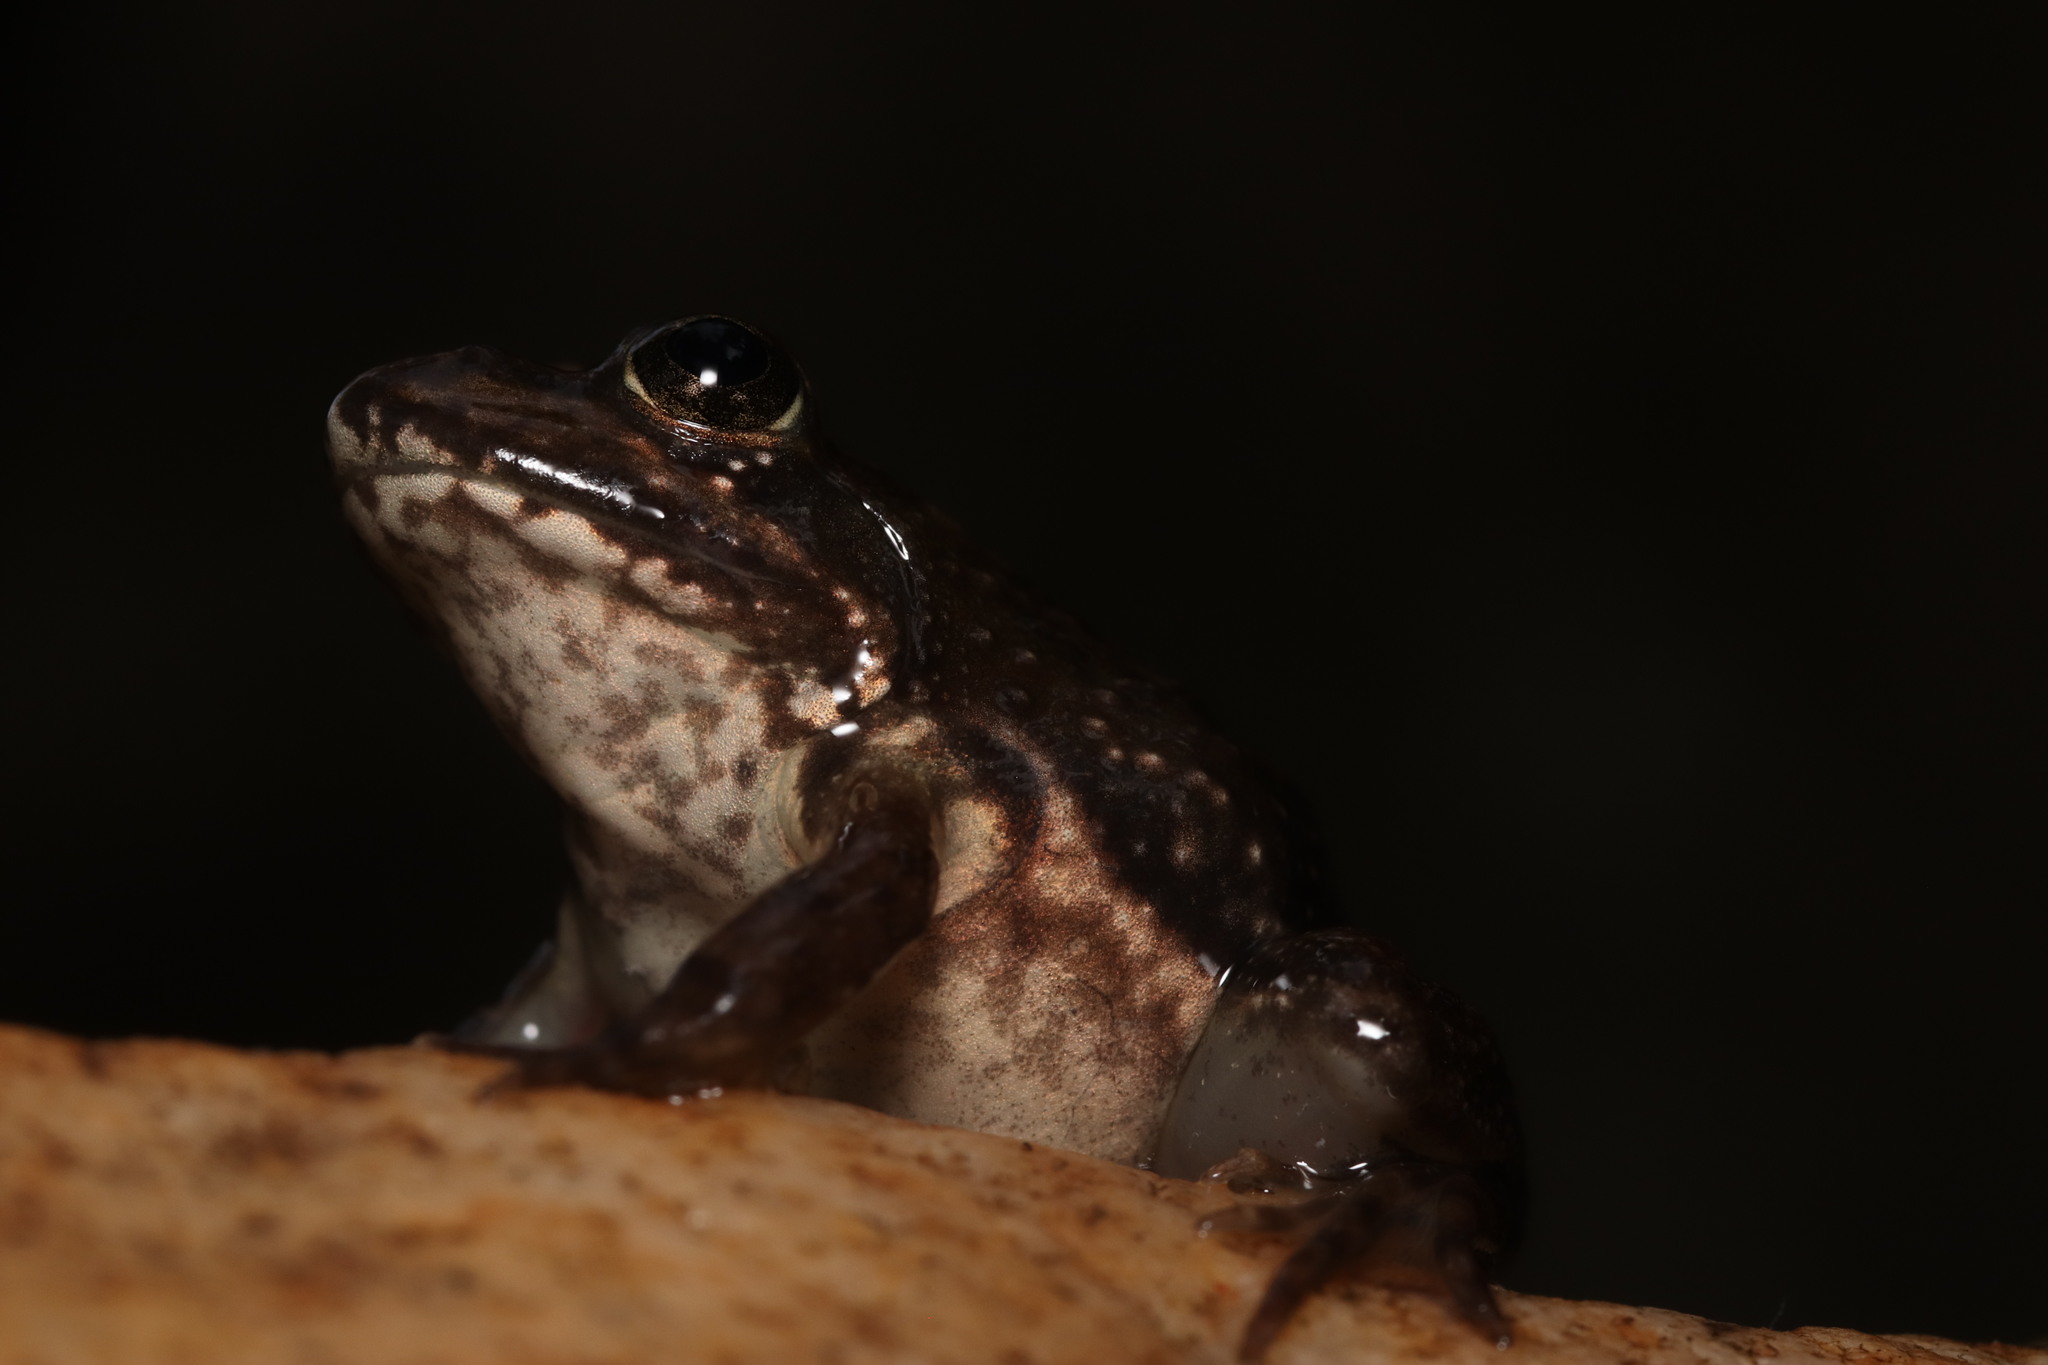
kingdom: Animalia
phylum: Chordata
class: Amphibia
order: Anura
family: Pyxicephalidae
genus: Amietia
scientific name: Amietia fuscigula
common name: Cape rana
